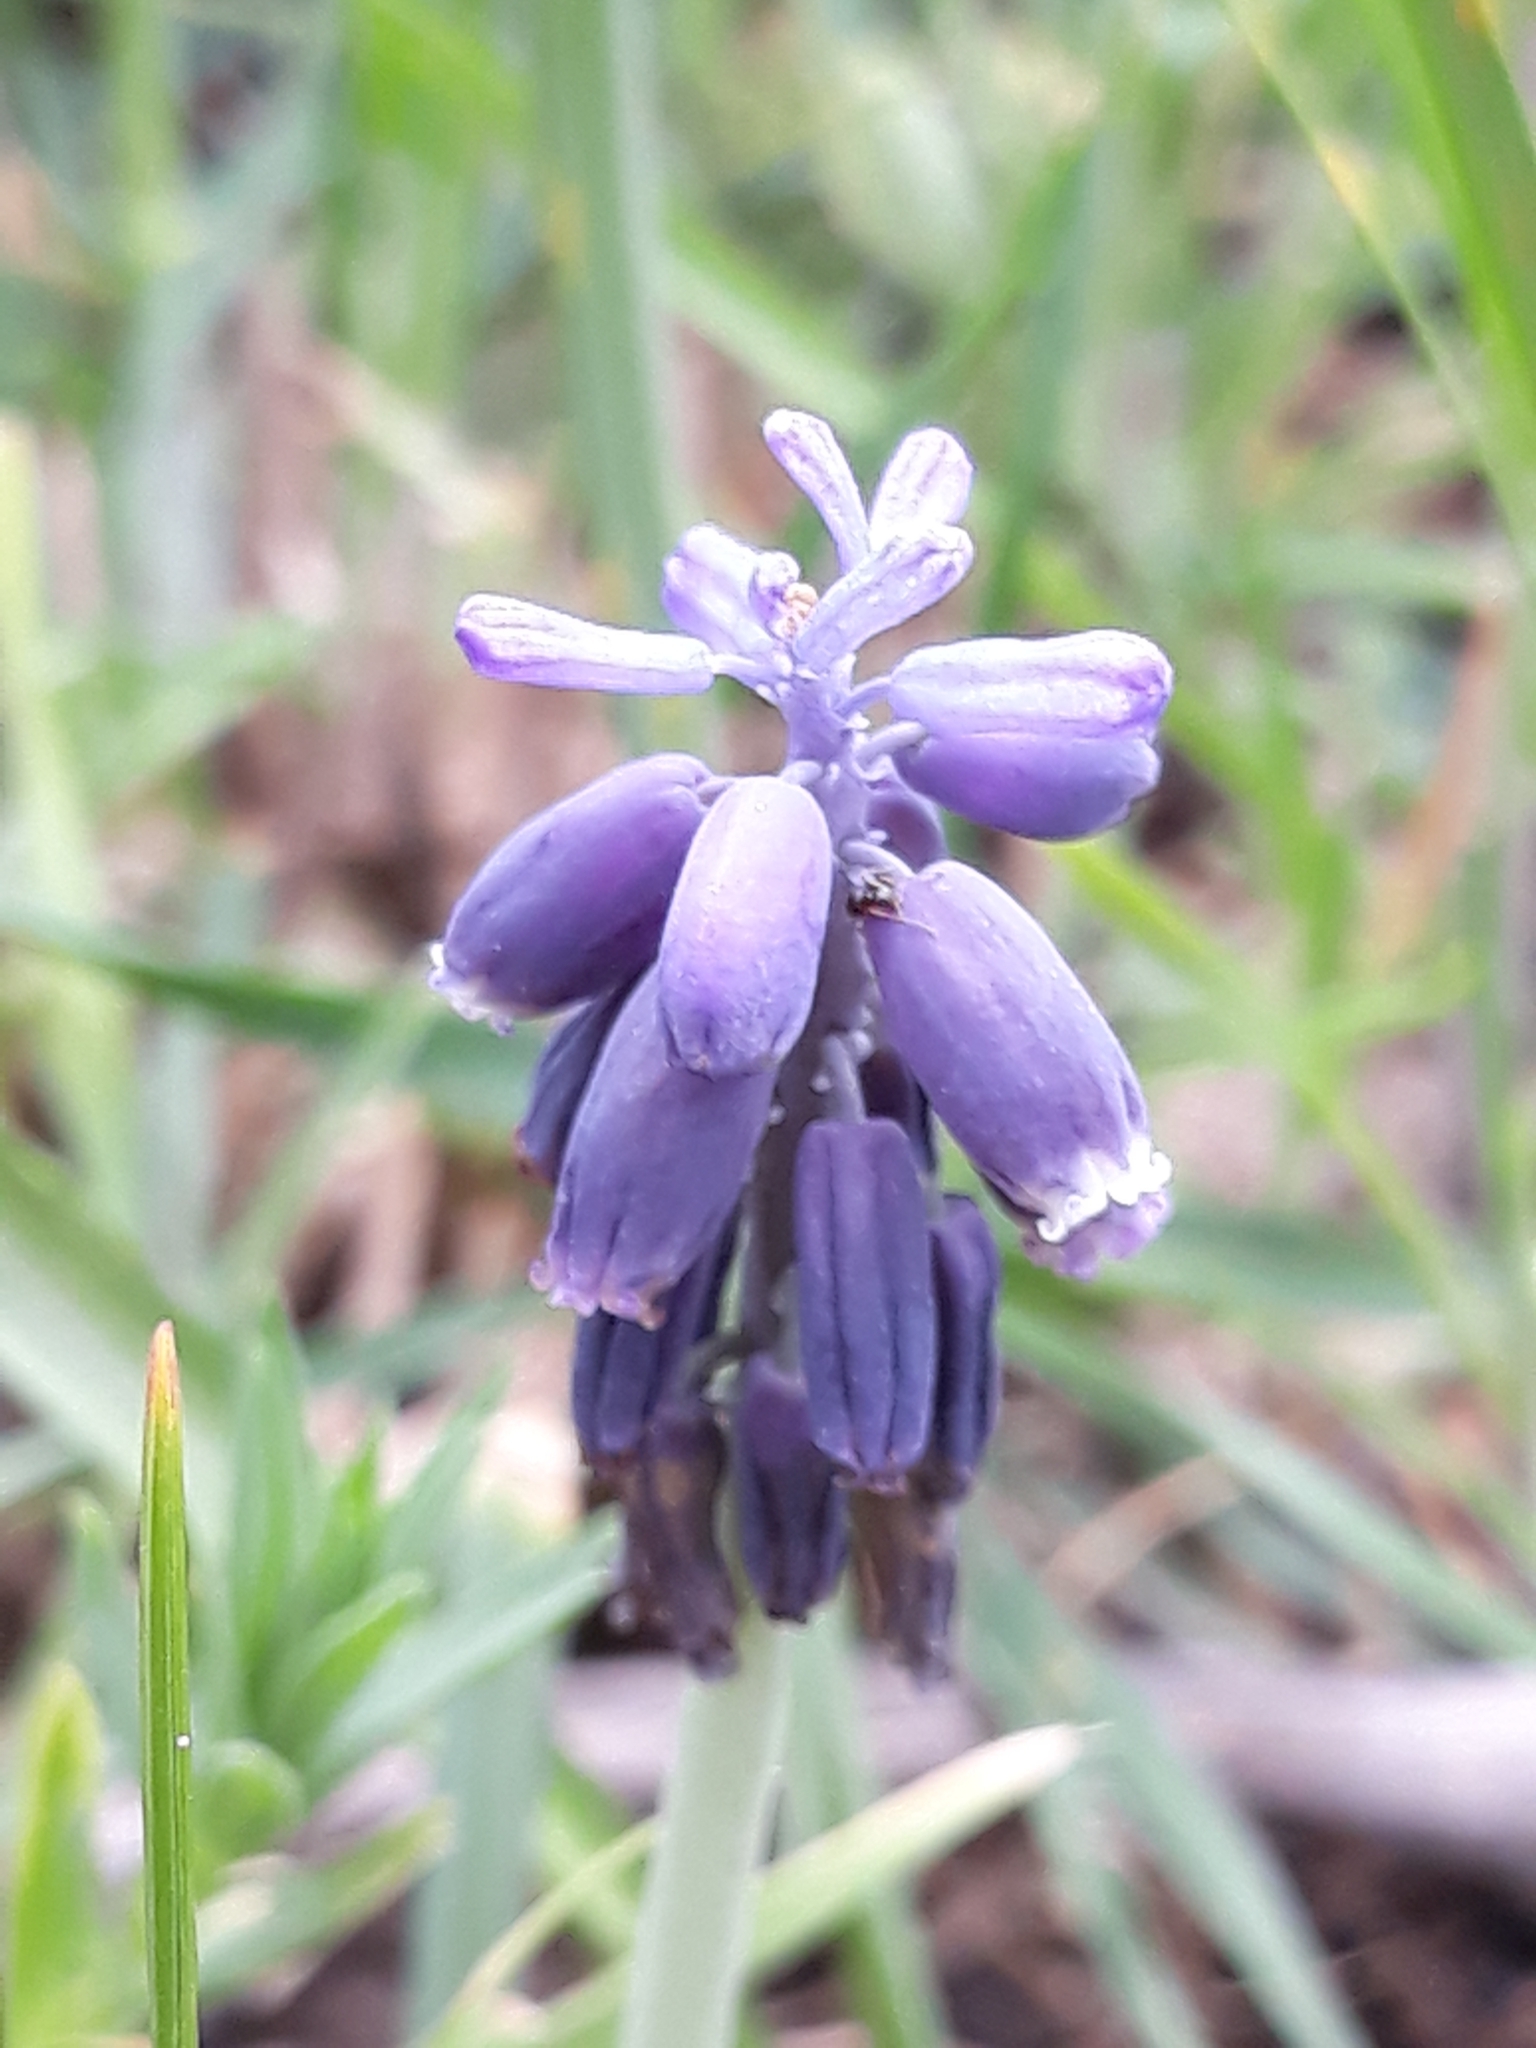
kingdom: Plantae
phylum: Tracheophyta
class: Liliopsida
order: Asparagales
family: Asparagaceae
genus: Muscari
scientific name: Muscari neglectum
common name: Grape-hyacinth
